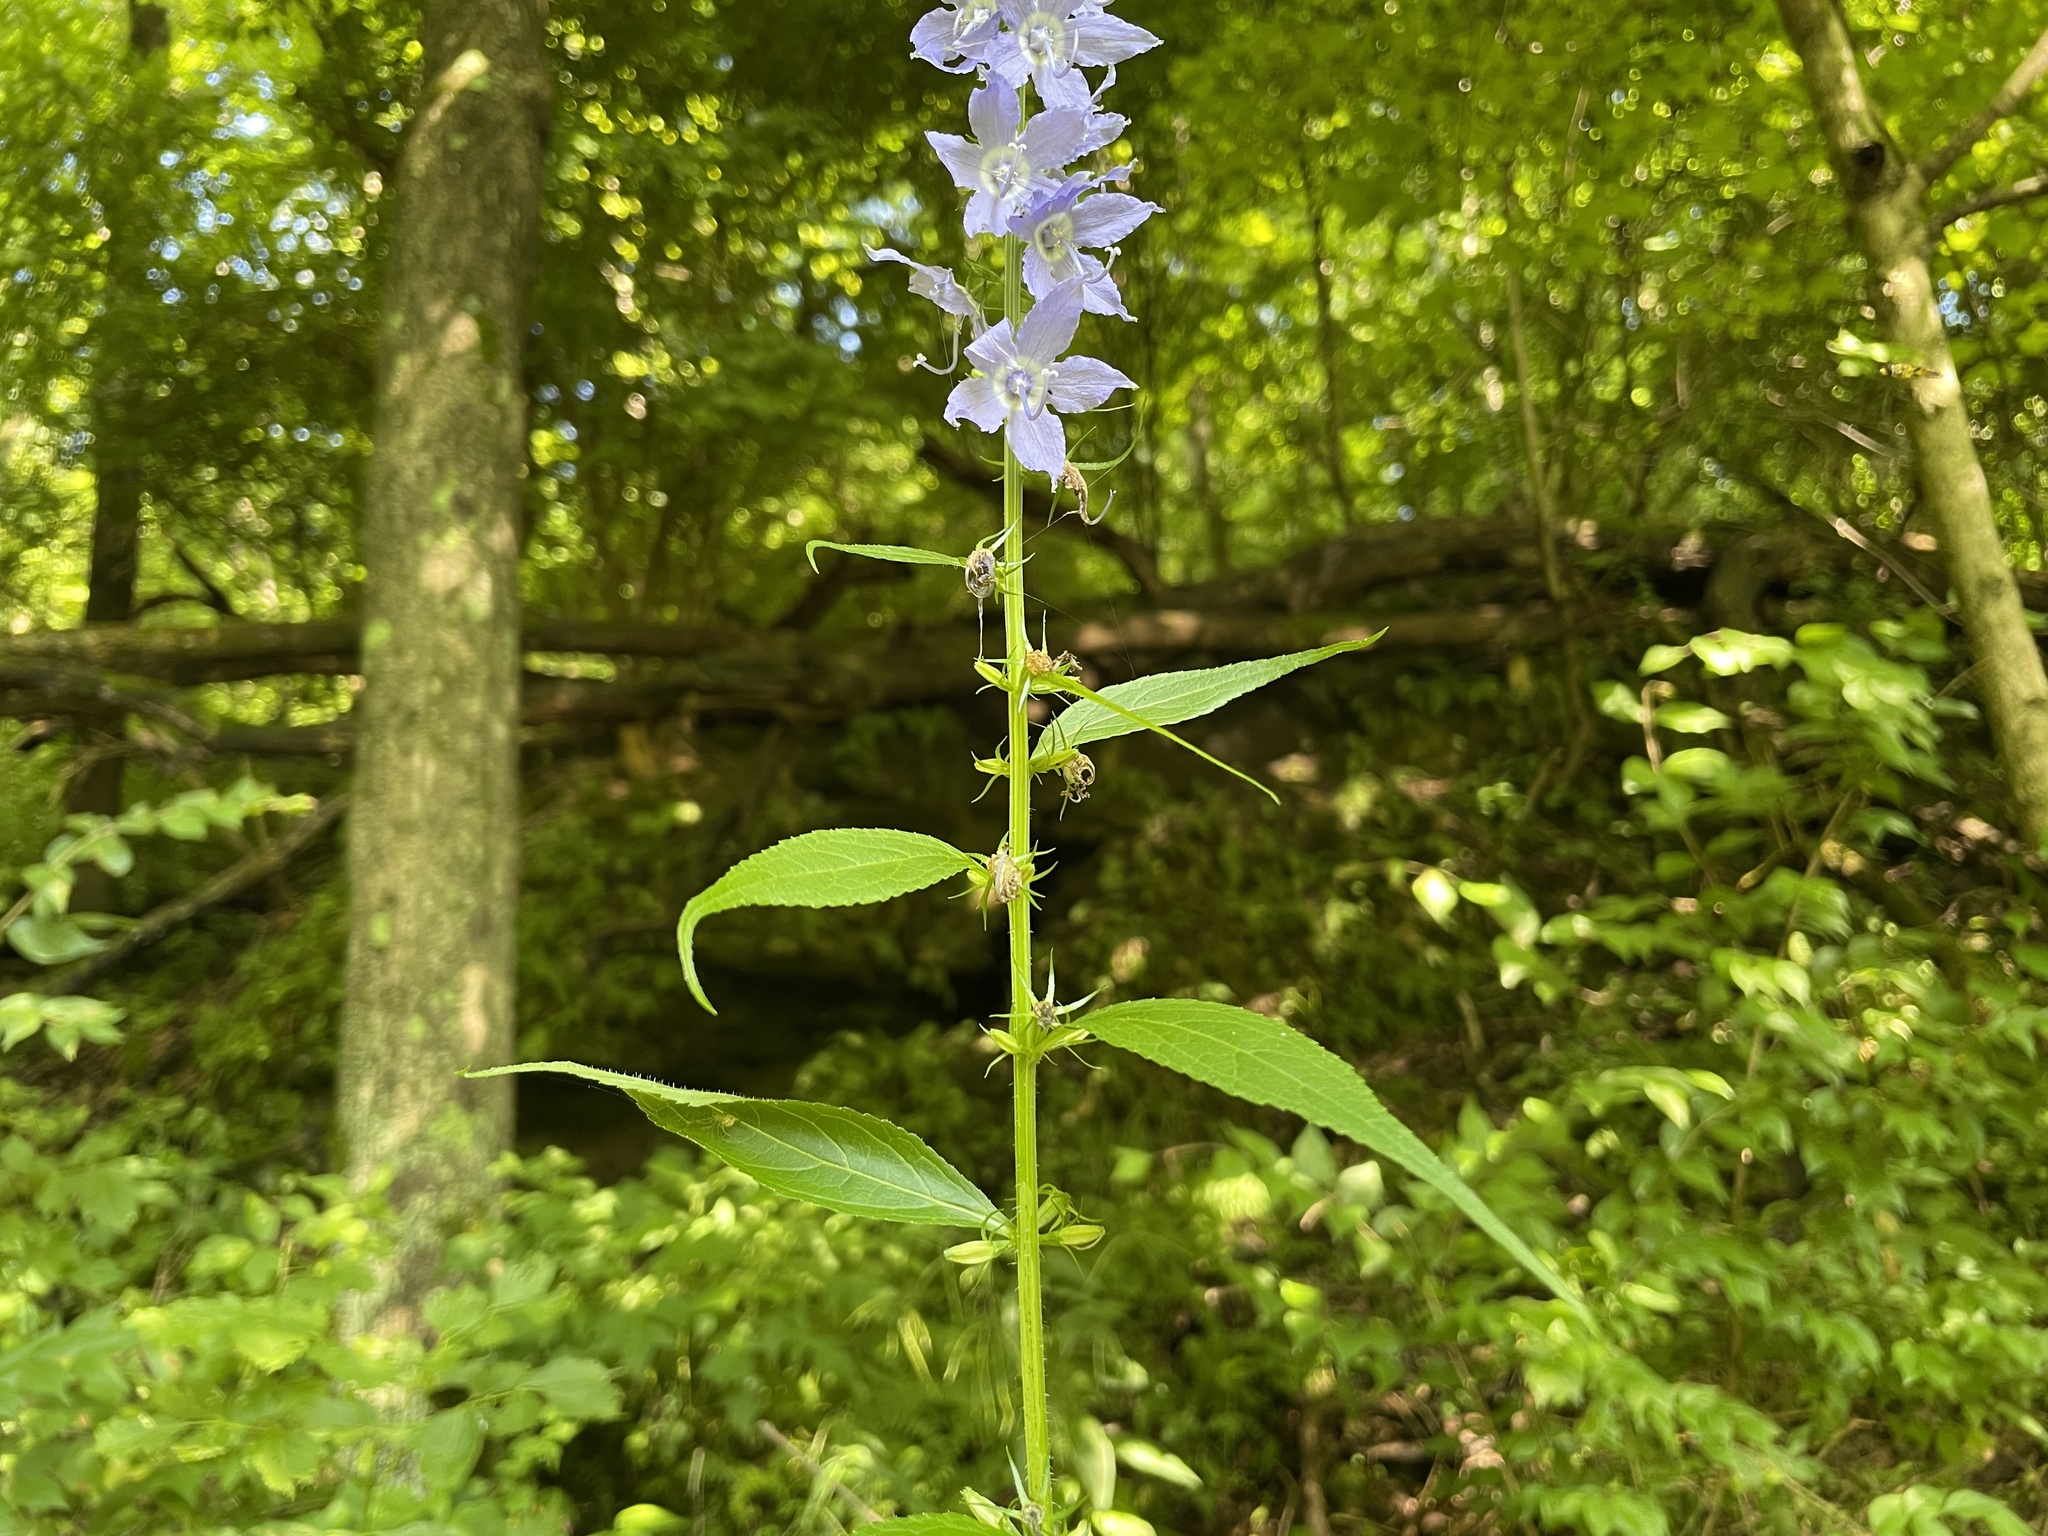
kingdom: Plantae
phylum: Tracheophyta
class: Magnoliopsida
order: Asterales
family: Campanulaceae
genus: Campanulastrum
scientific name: Campanulastrum americanum
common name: American bellflower
